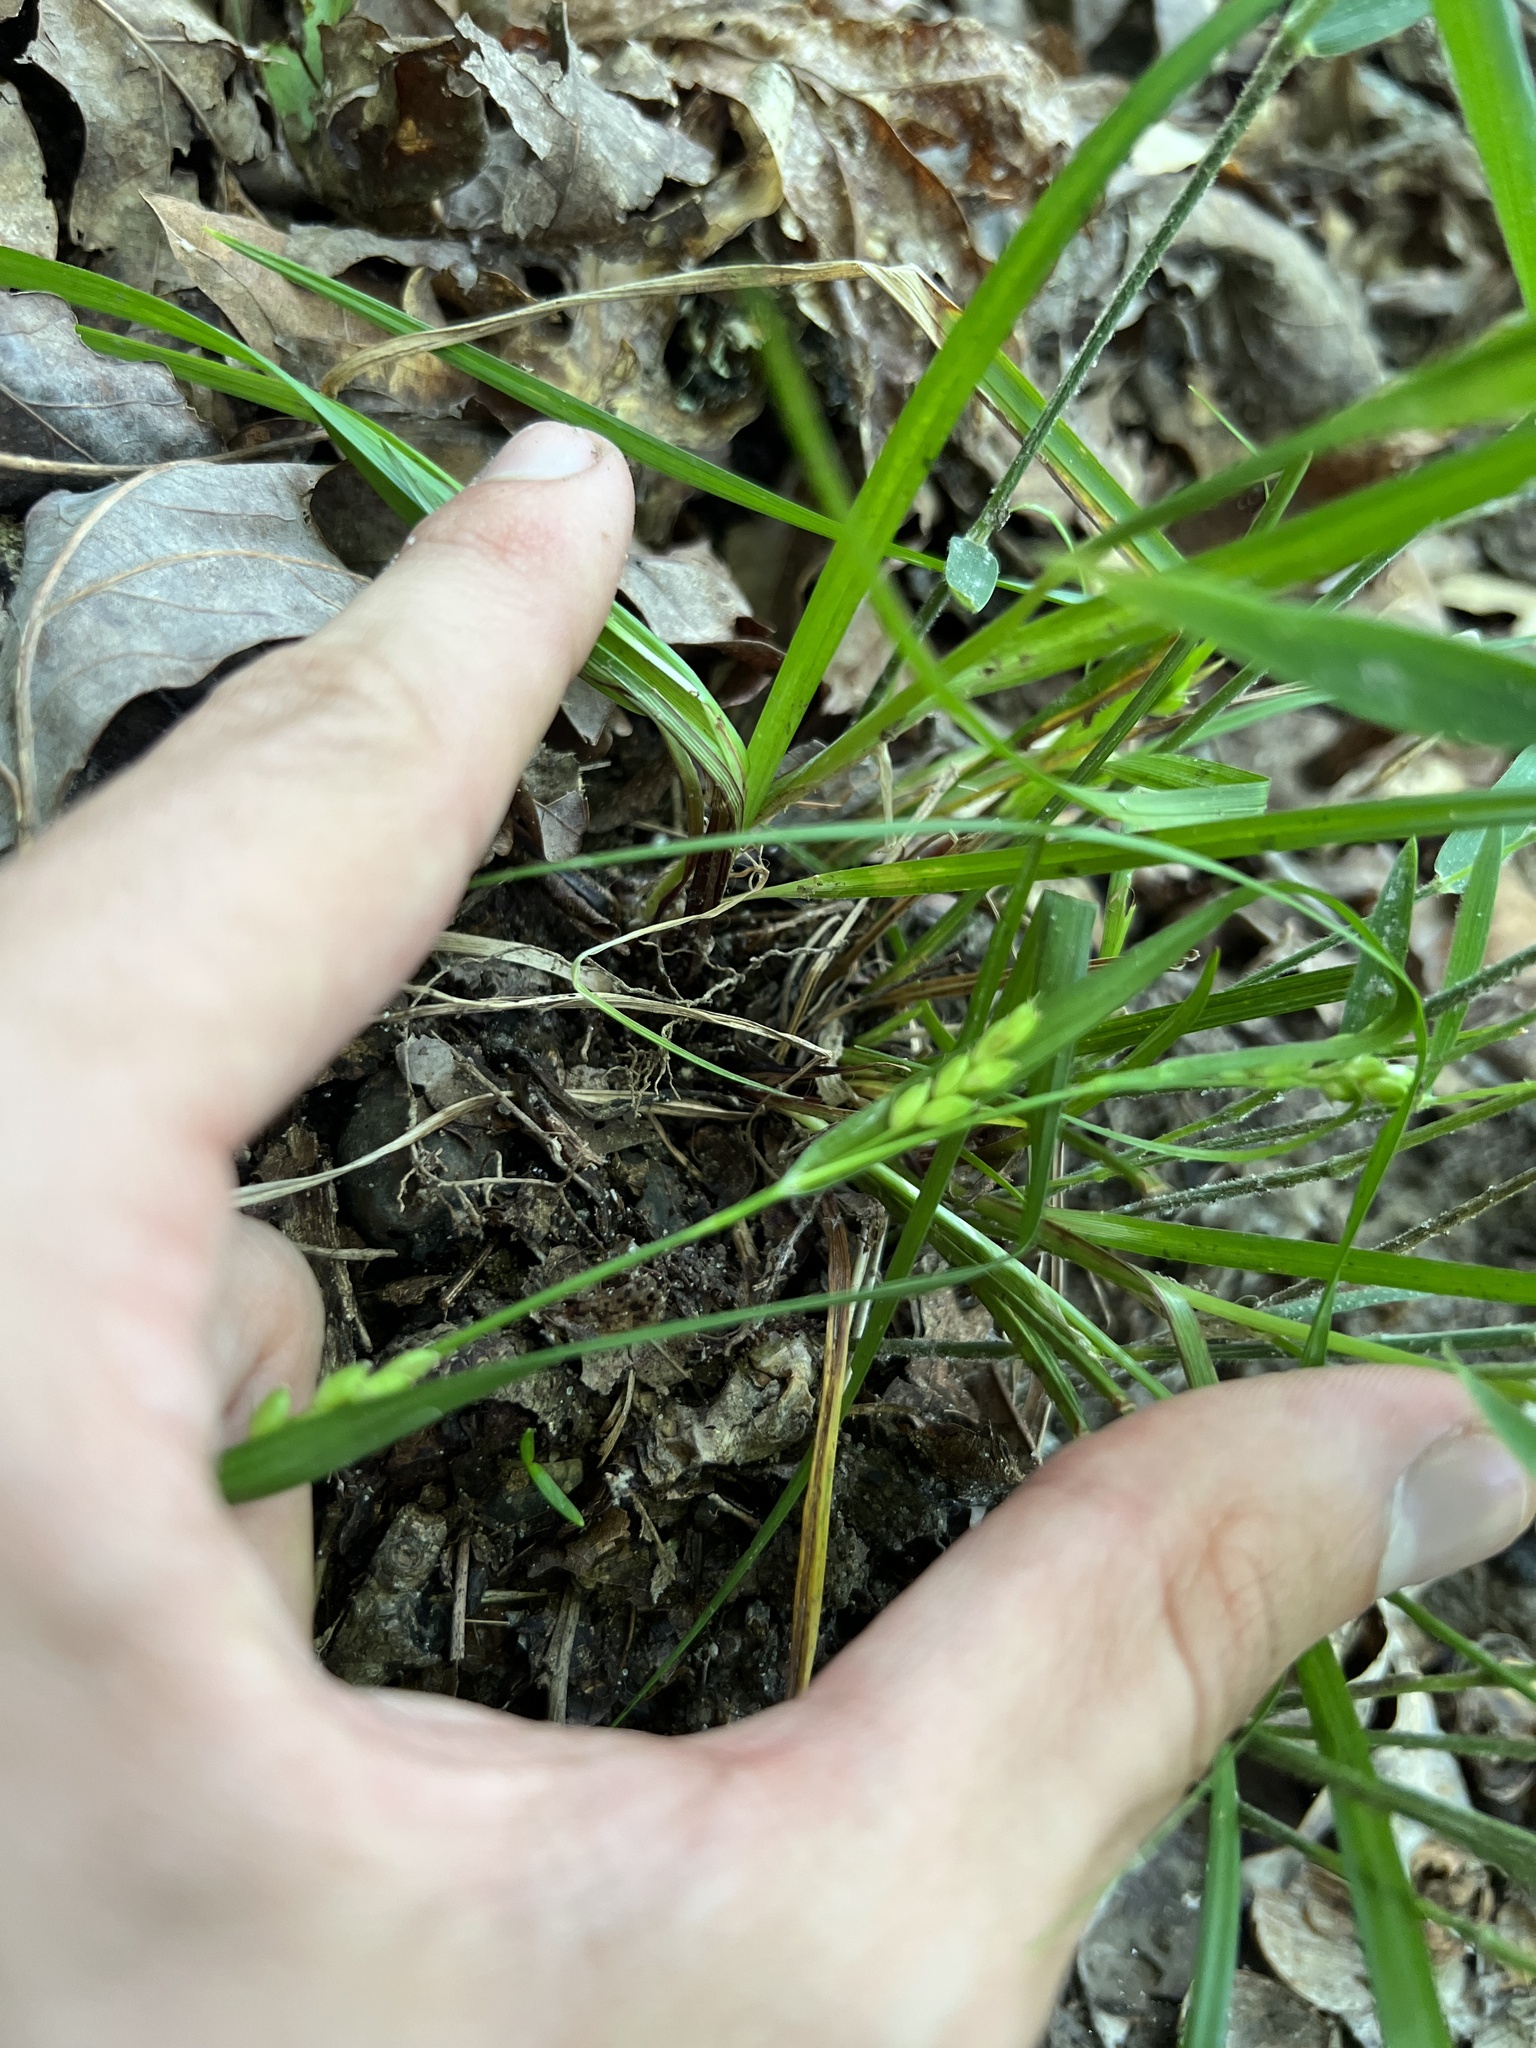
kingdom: Plantae
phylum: Tracheophyta
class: Liliopsida
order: Poales
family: Cyperaceae
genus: Carex
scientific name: Carex planispicata
